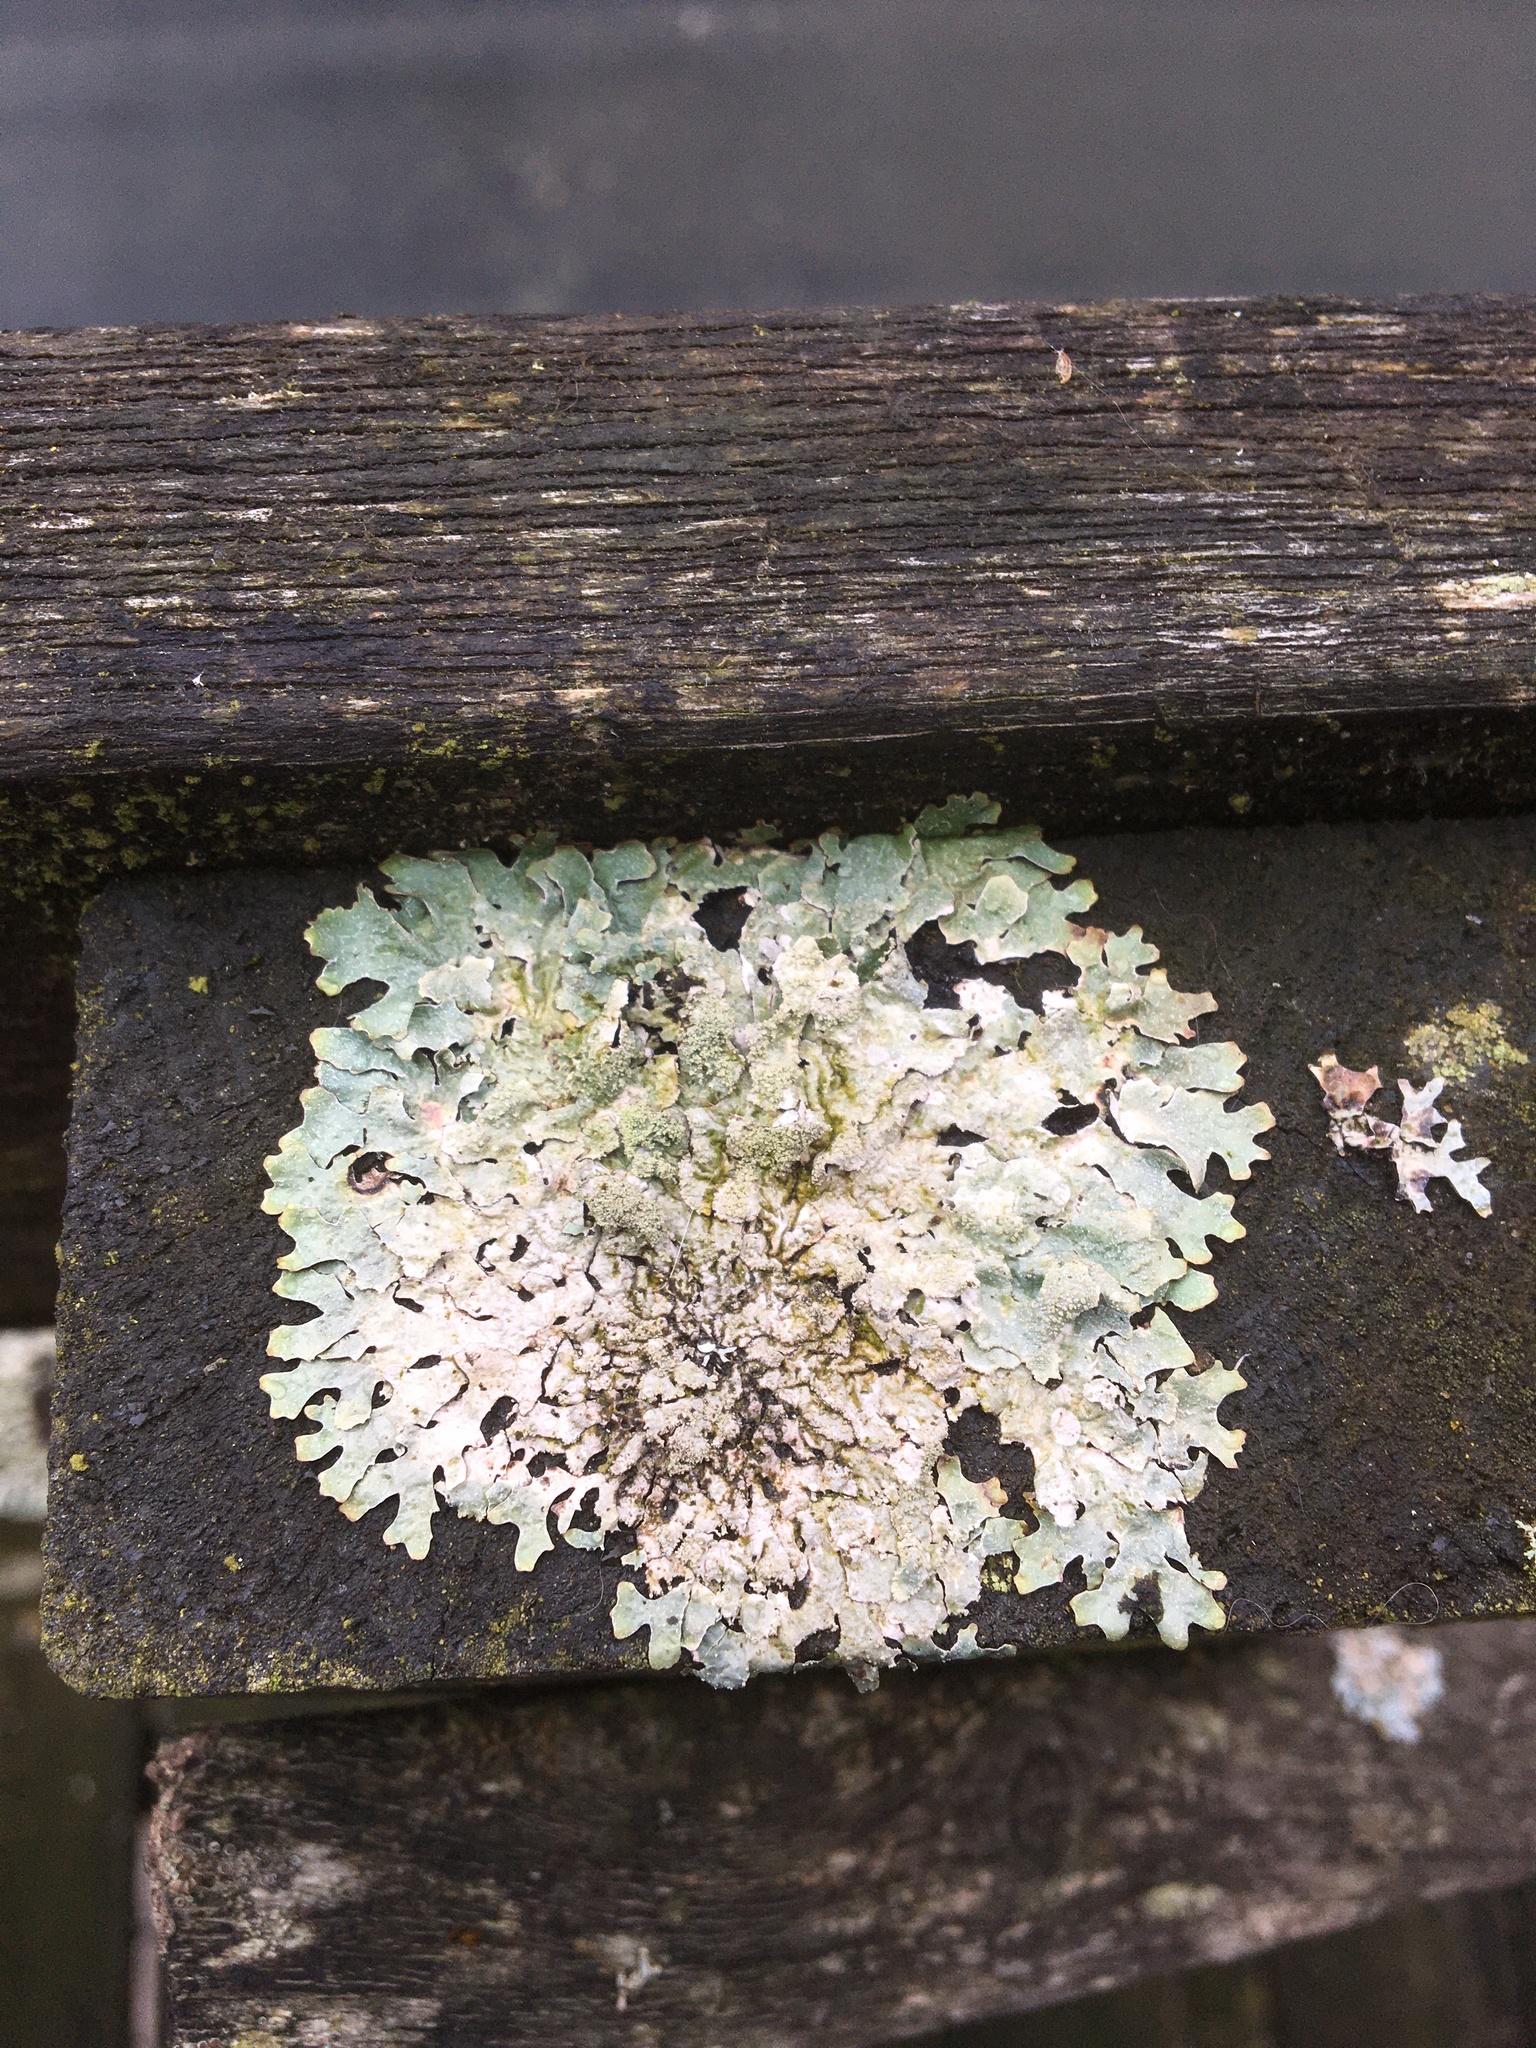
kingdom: Fungi
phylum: Ascomycota
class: Lecanoromycetes
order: Lecanorales
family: Parmeliaceae
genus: Parmelia
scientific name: Parmelia sulcata
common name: Netted shield lichen
